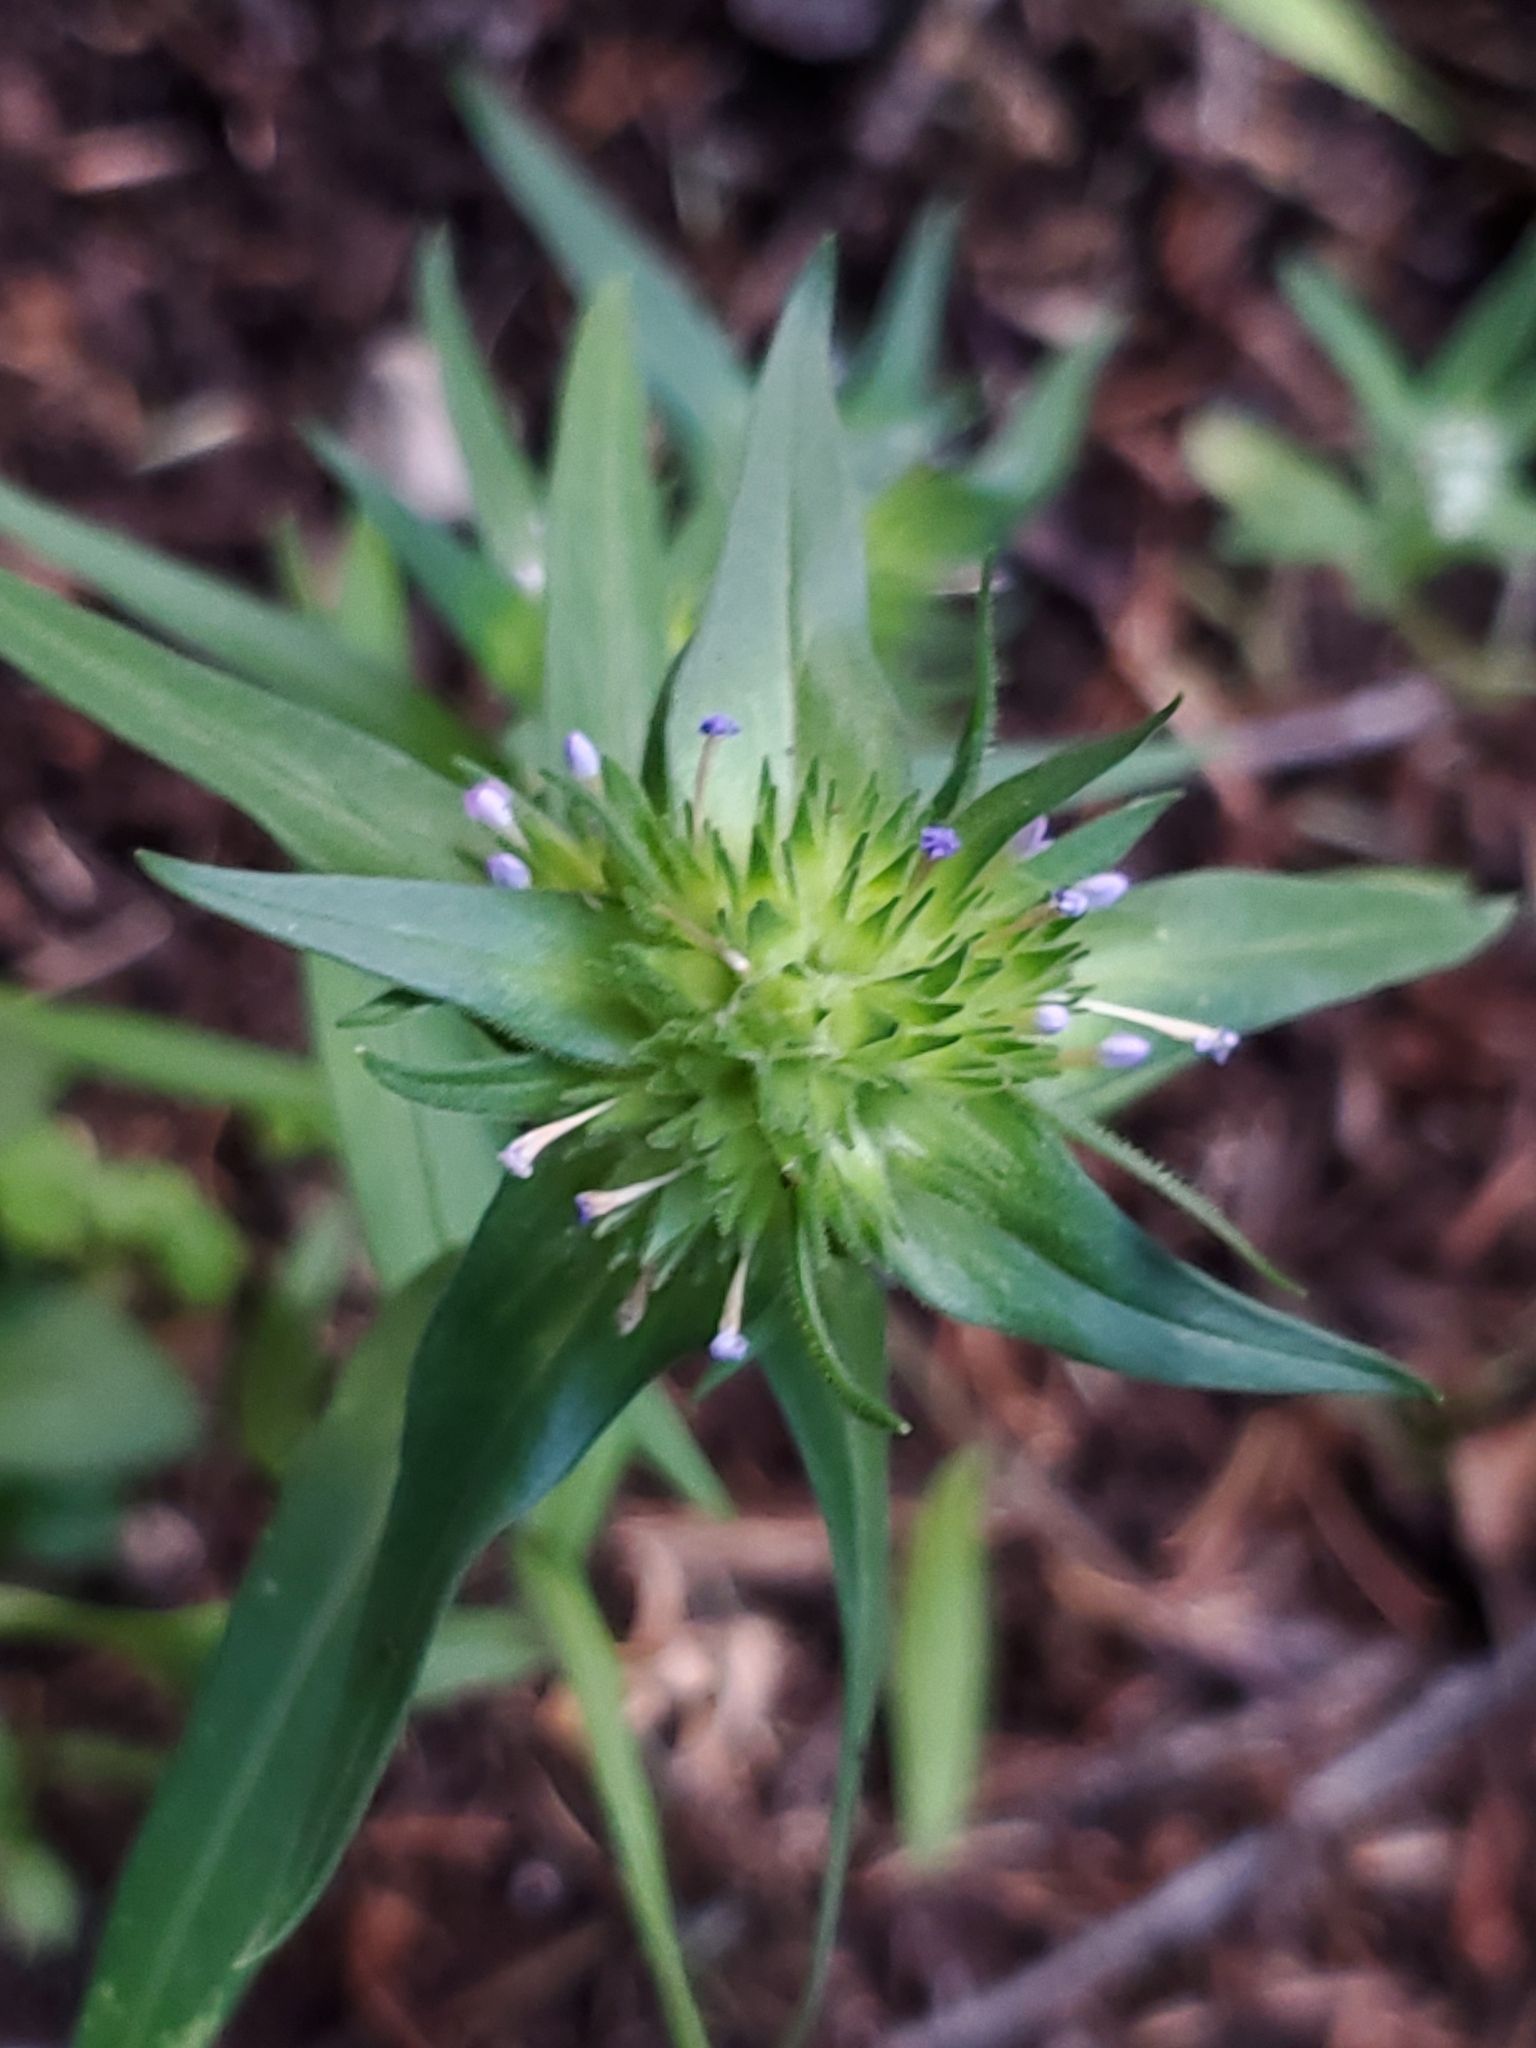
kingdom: Plantae
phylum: Tracheophyta
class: Magnoliopsida
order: Ericales
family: Polemoniaceae
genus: Collomia
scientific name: Collomia linearis
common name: Tiny trumpet
